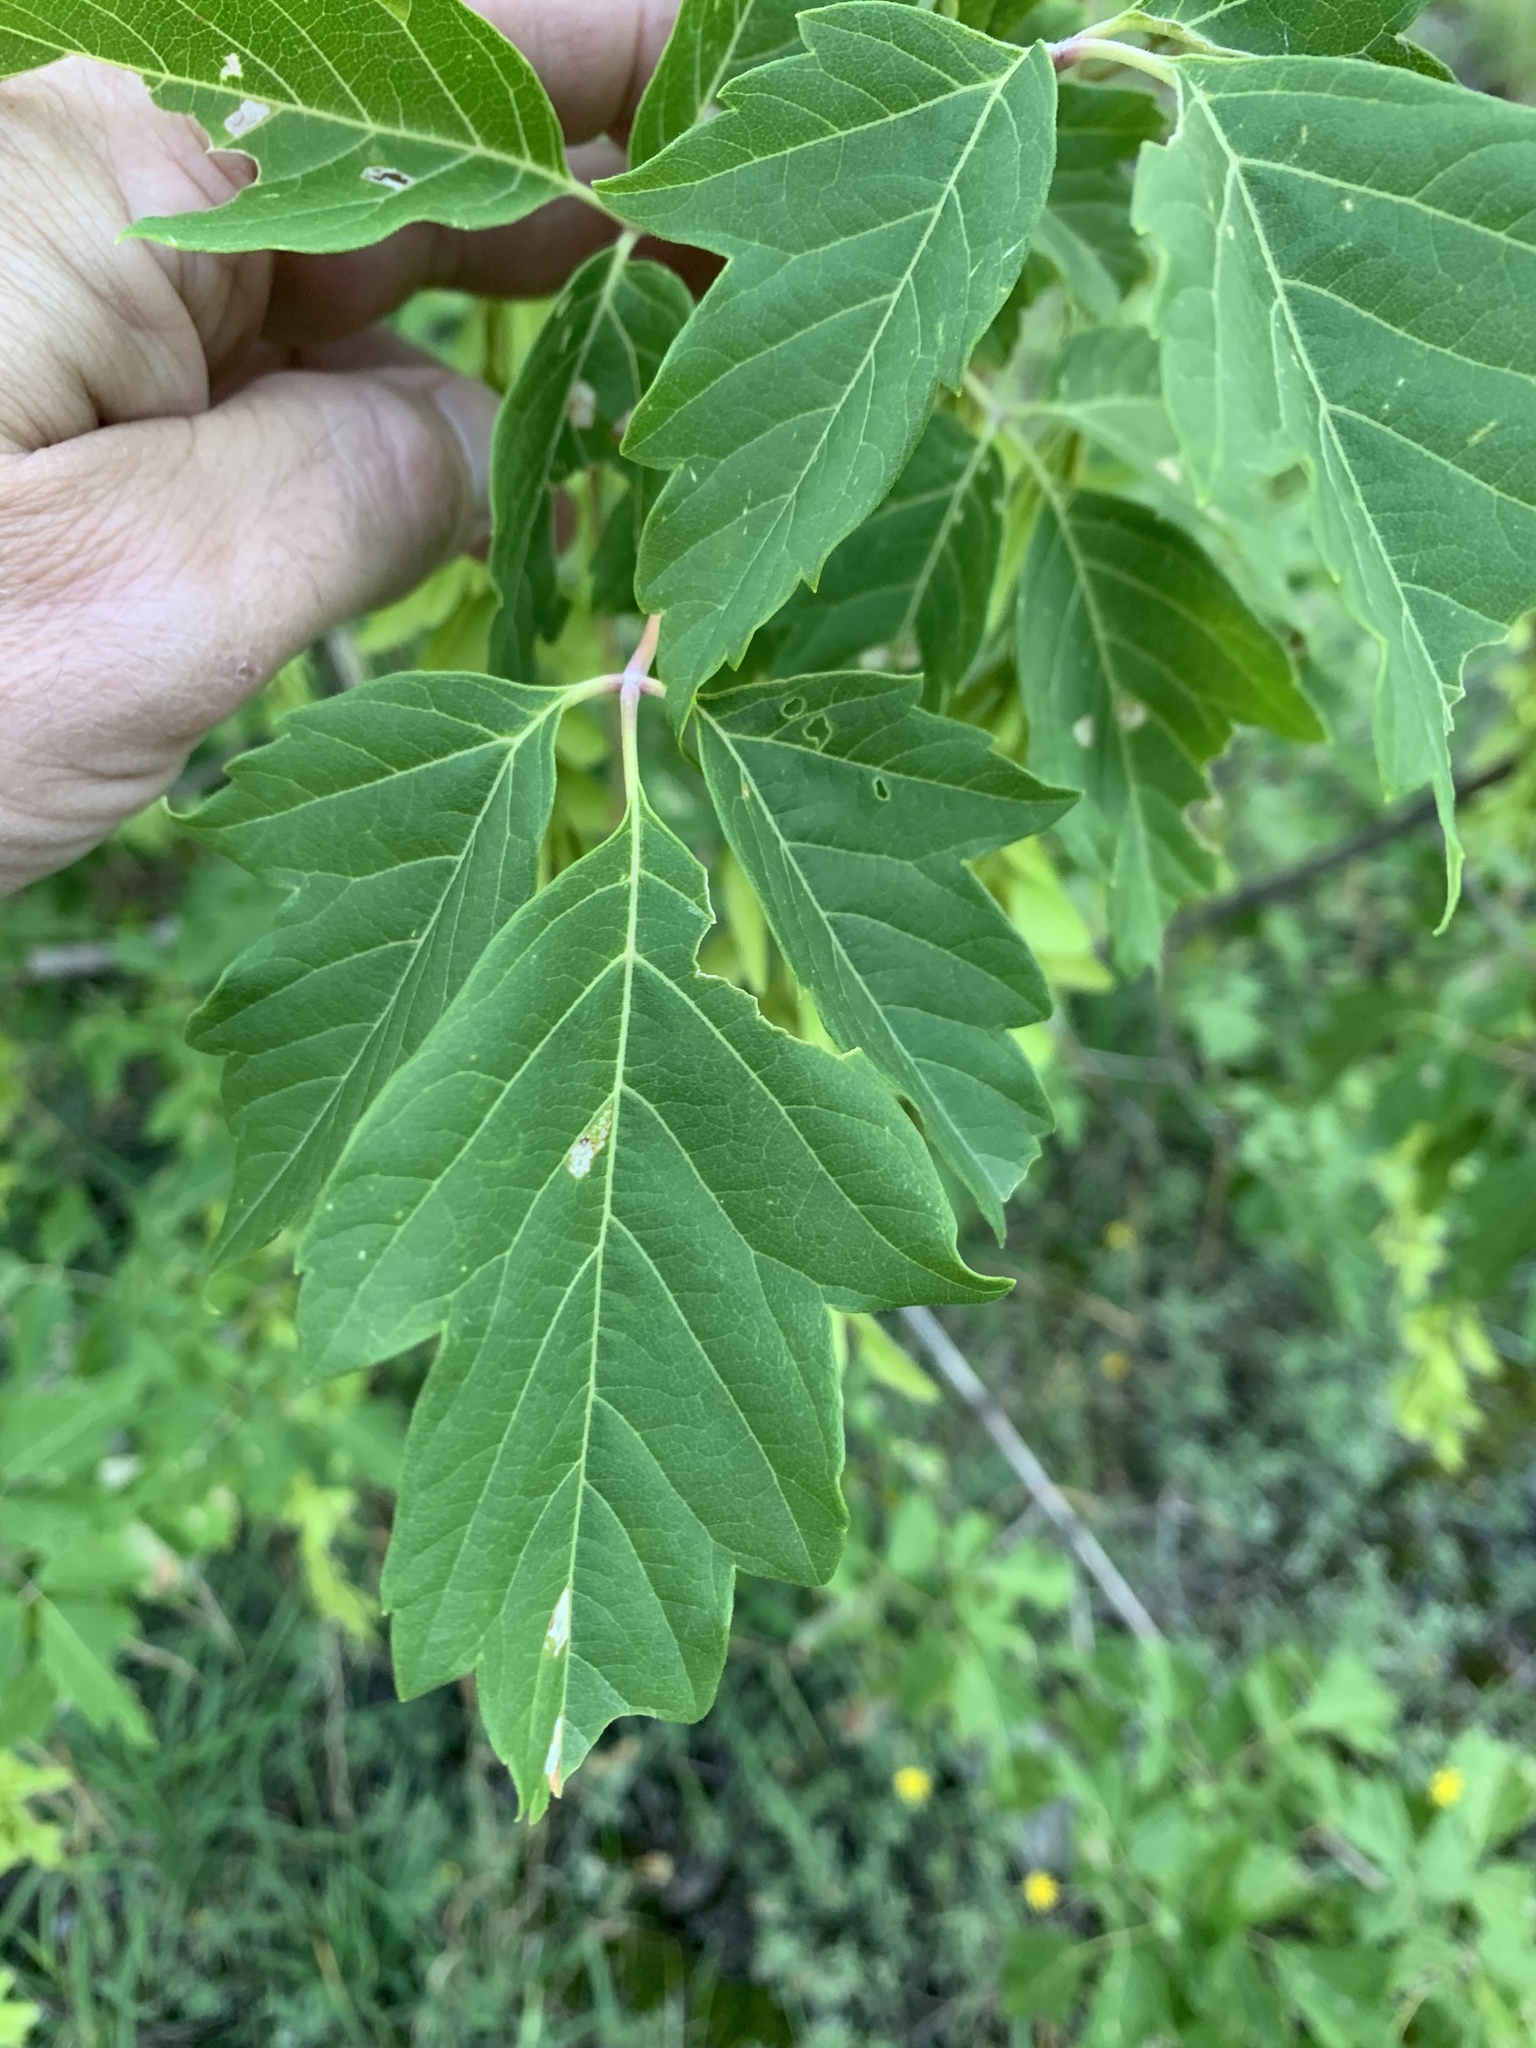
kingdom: Plantae
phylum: Tracheophyta
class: Magnoliopsida
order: Sapindales
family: Sapindaceae
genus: Acer
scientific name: Acer negundo
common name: Ashleaf maple
